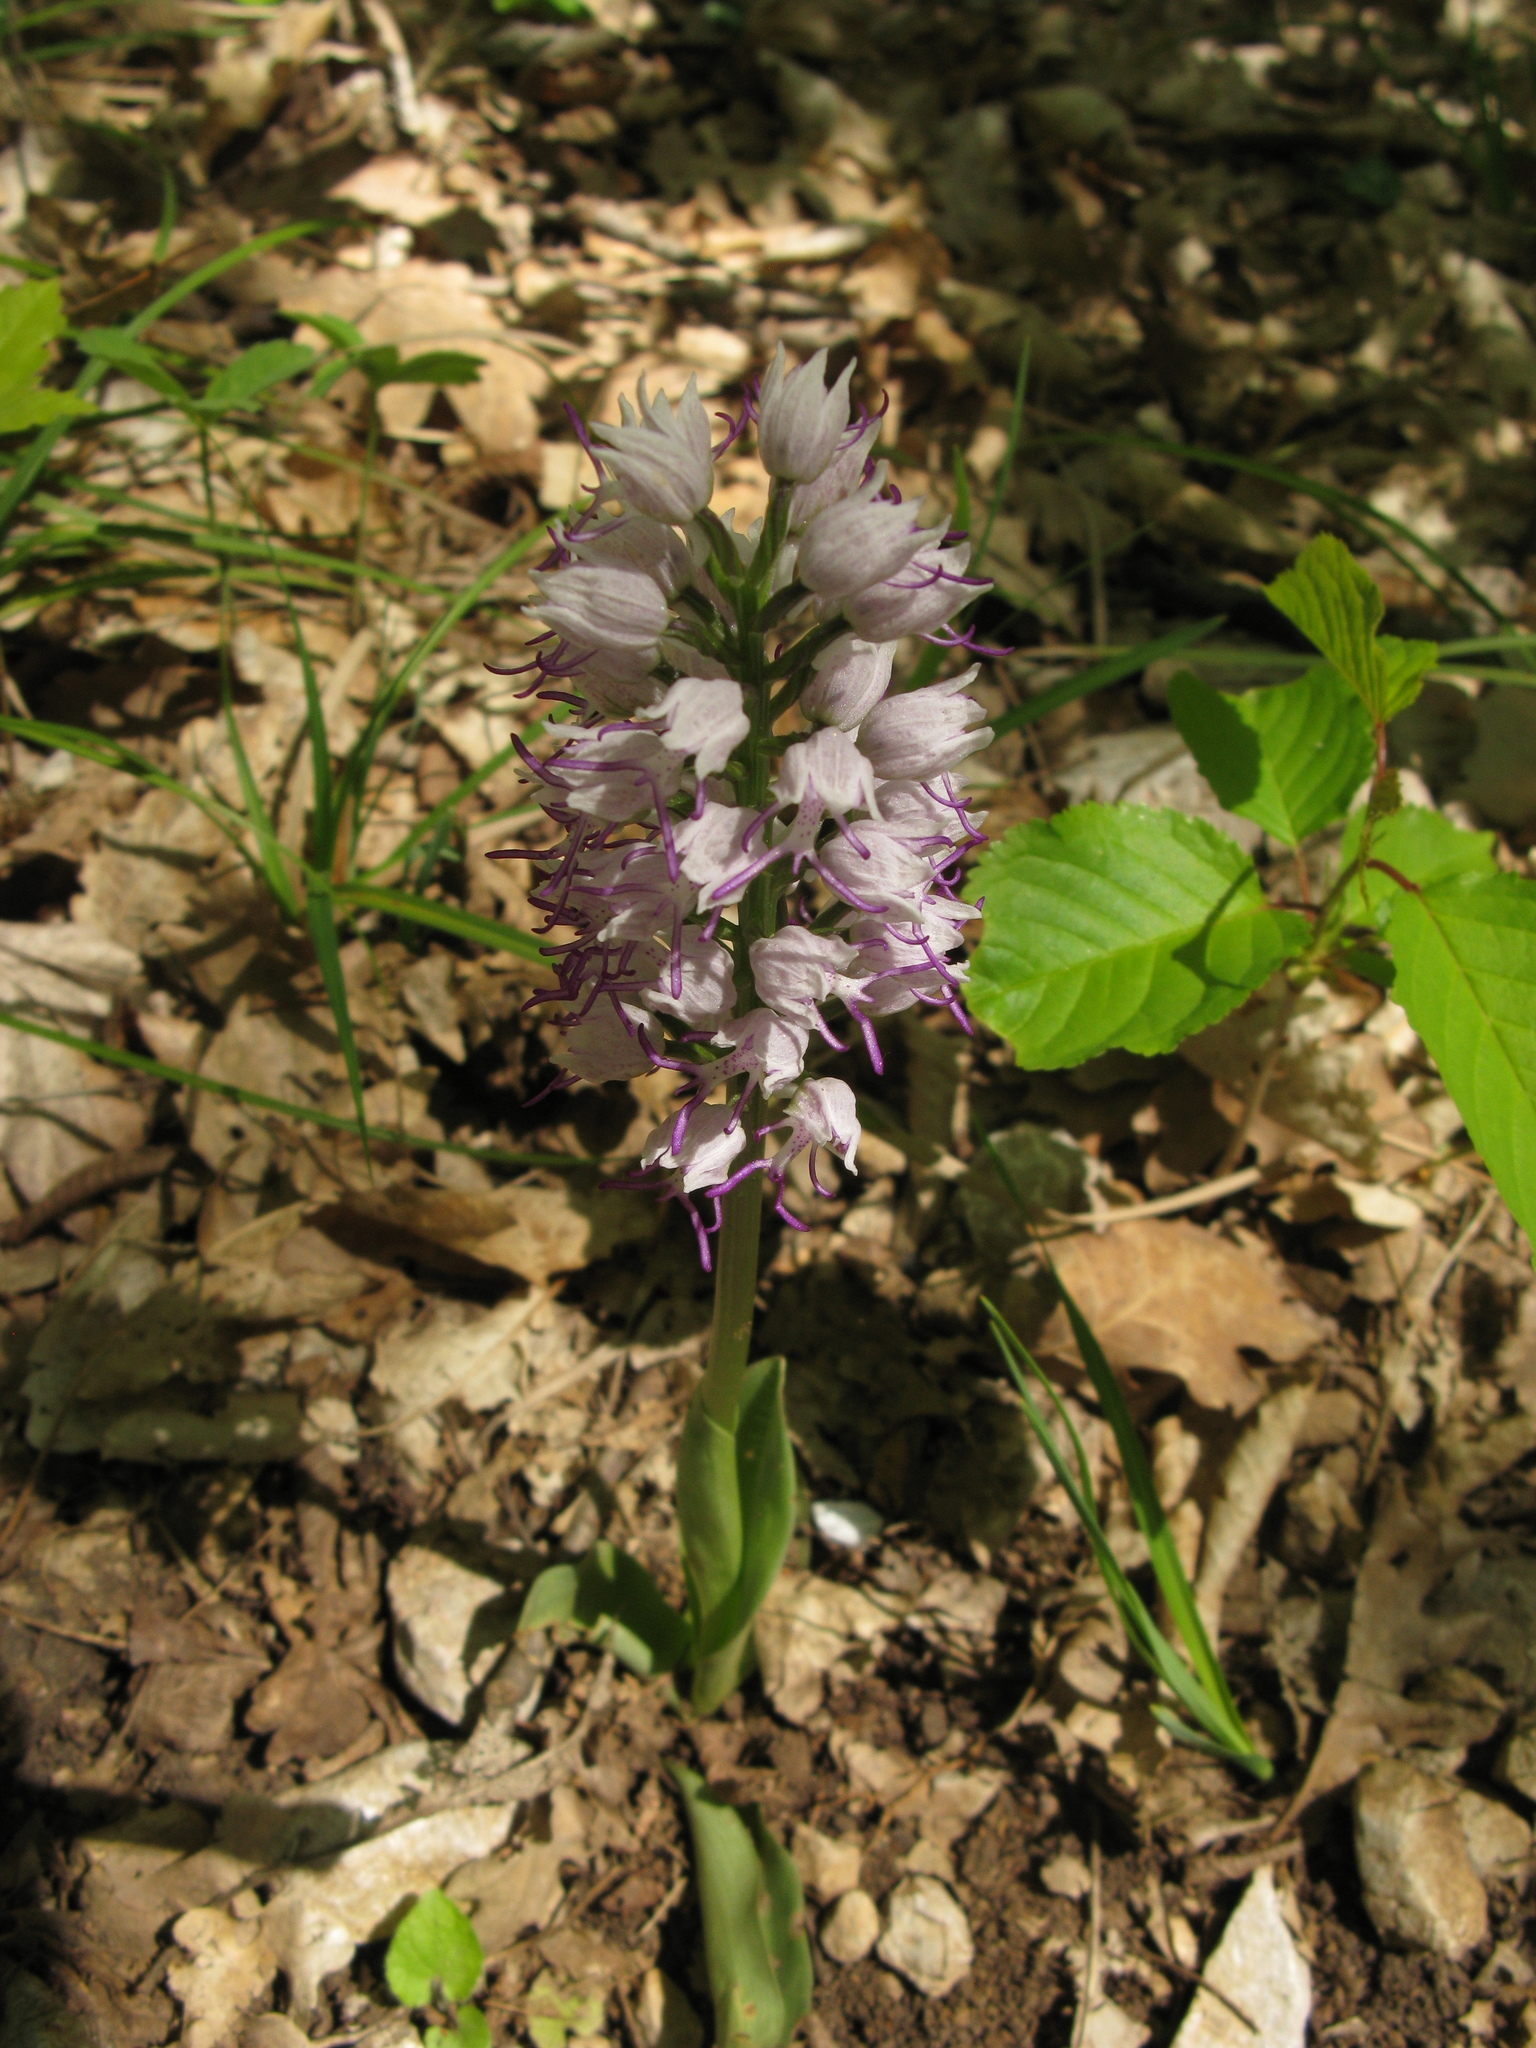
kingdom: Plantae
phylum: Tracheophyta
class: Liliopsida
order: Asparagales
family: Orchidaceae
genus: Orchis
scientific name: Orchis simia
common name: Monkey orchid
